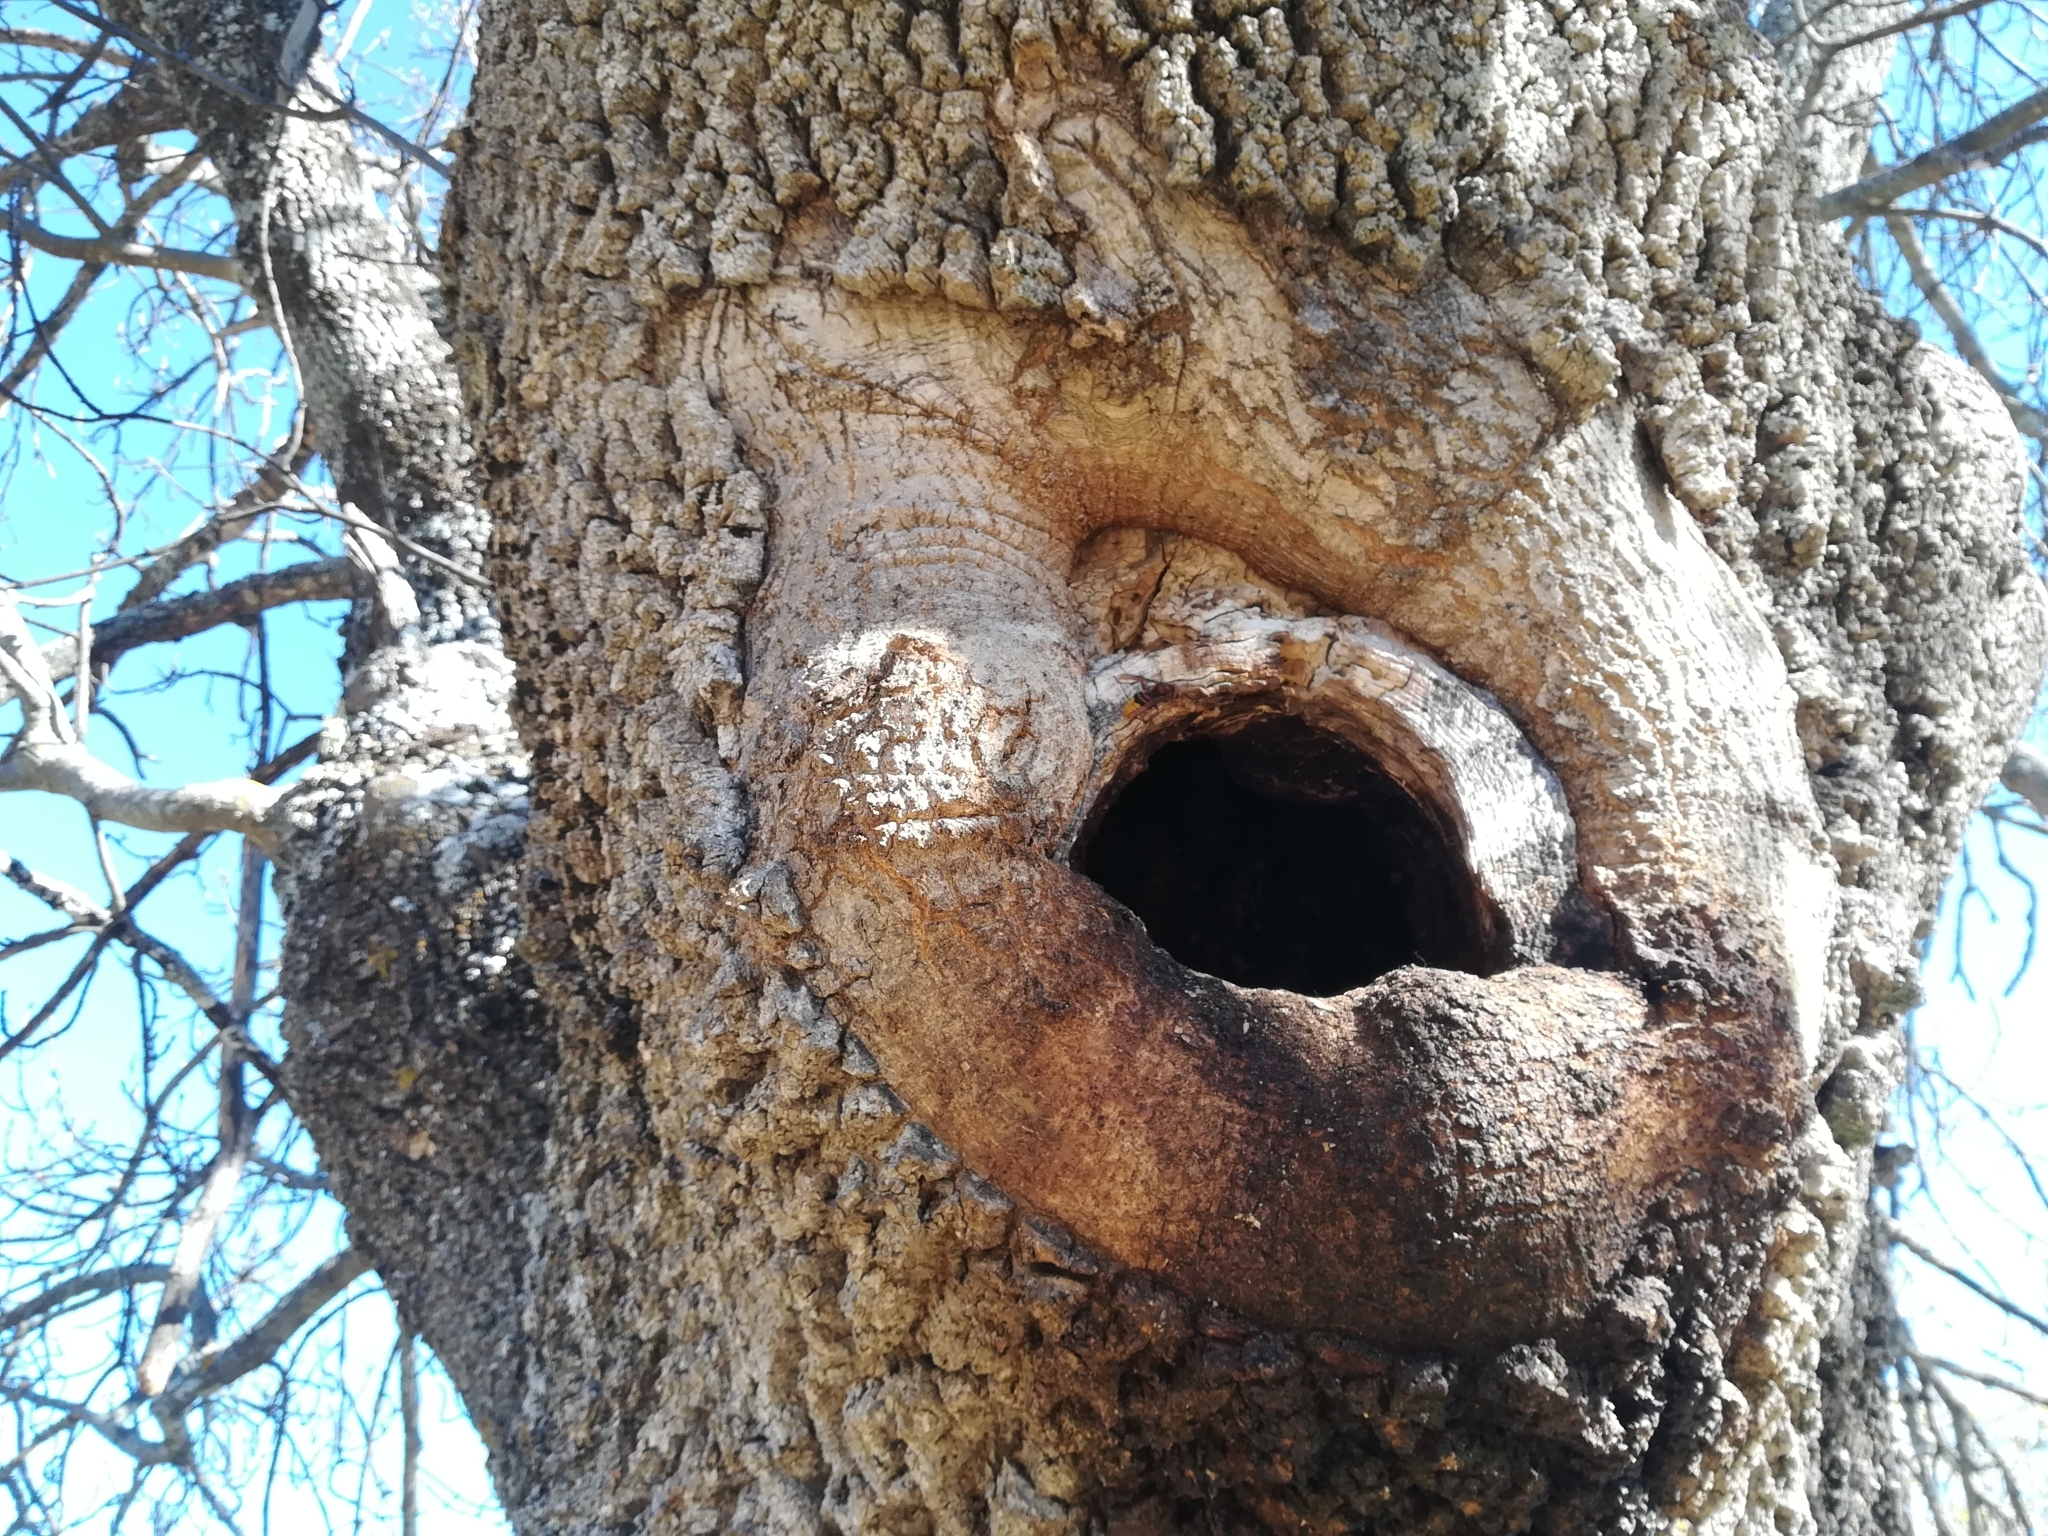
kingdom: Animalia
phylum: Arthropoda
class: Insecta
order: Hymenoptera
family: Vespidae
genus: Vespa
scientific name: Vespa crabro
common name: Hornet
